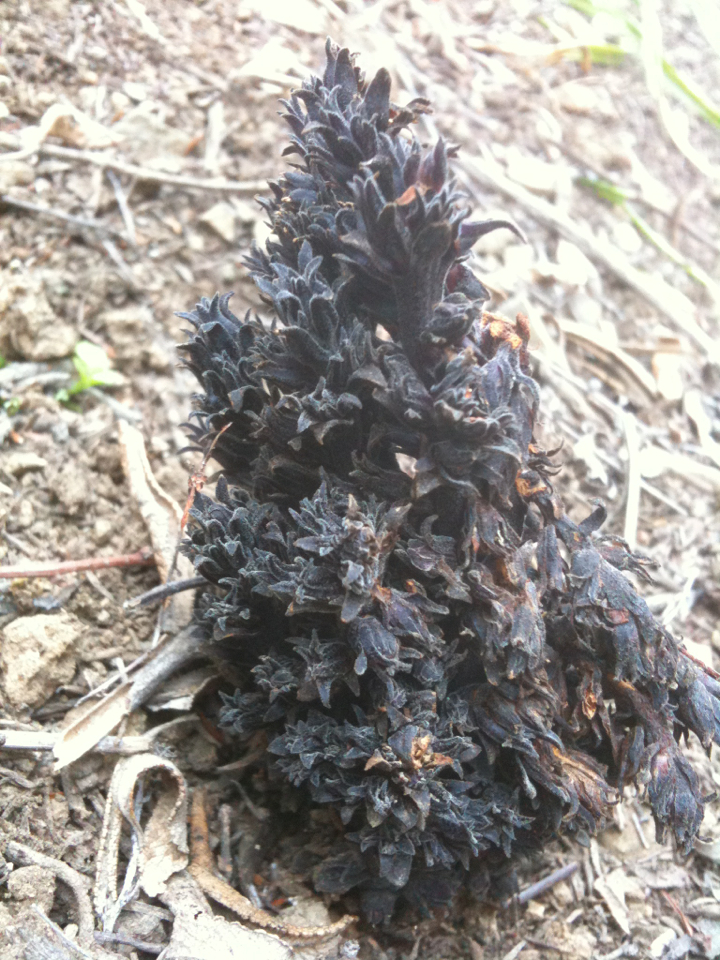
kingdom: Plantae
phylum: Tracheophyta
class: Magnoliopsida
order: Lamiales
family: Orobanchaceae
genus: Aphyllon
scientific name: Aphyllon tuberosum
